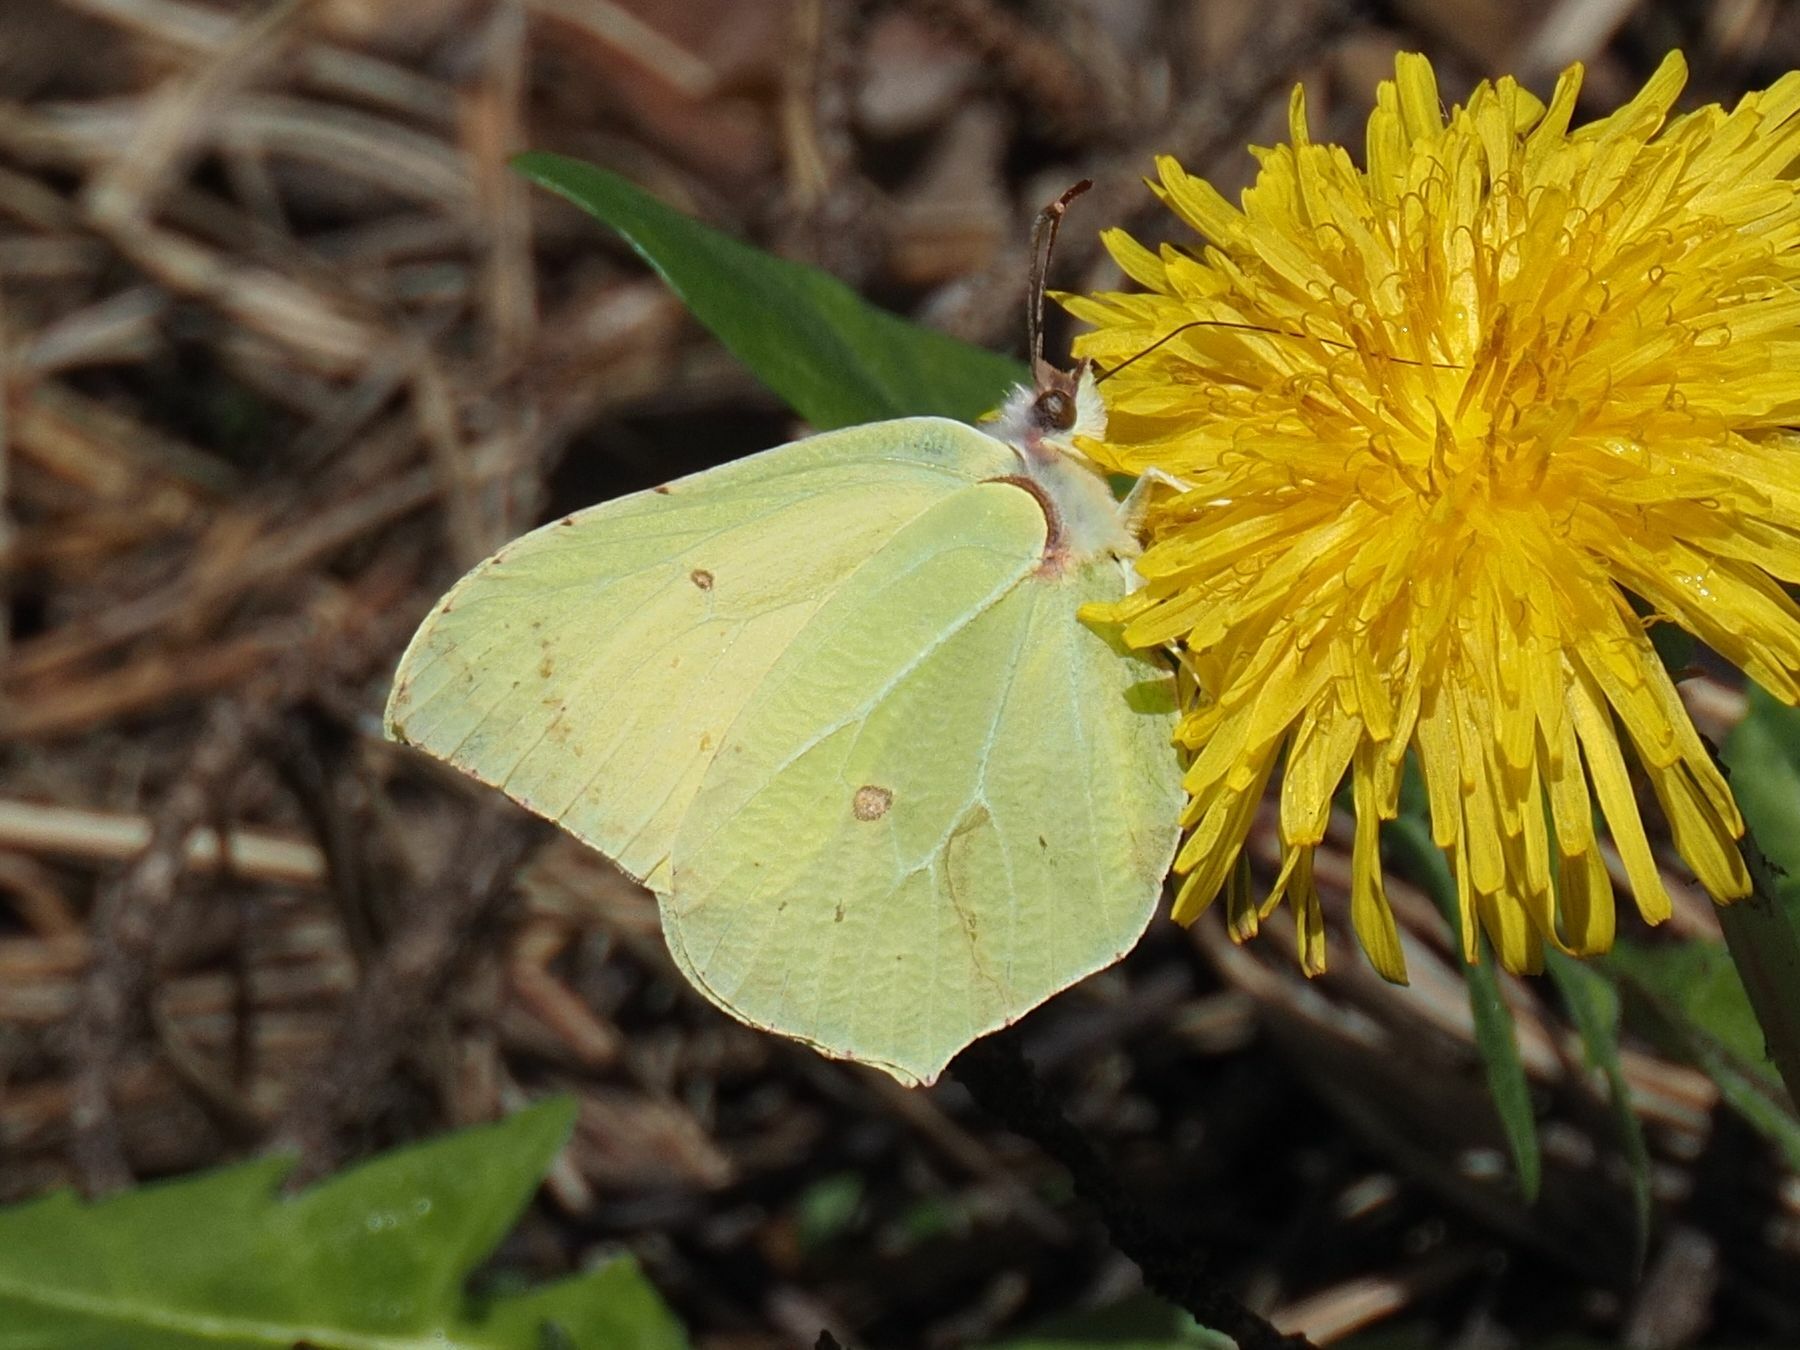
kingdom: Animalia
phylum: Arthropoda
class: Insecta
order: Lepidoptera
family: Pieridae
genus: Gonepteryx
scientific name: Gonepteryx rhamni
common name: Brimstone
